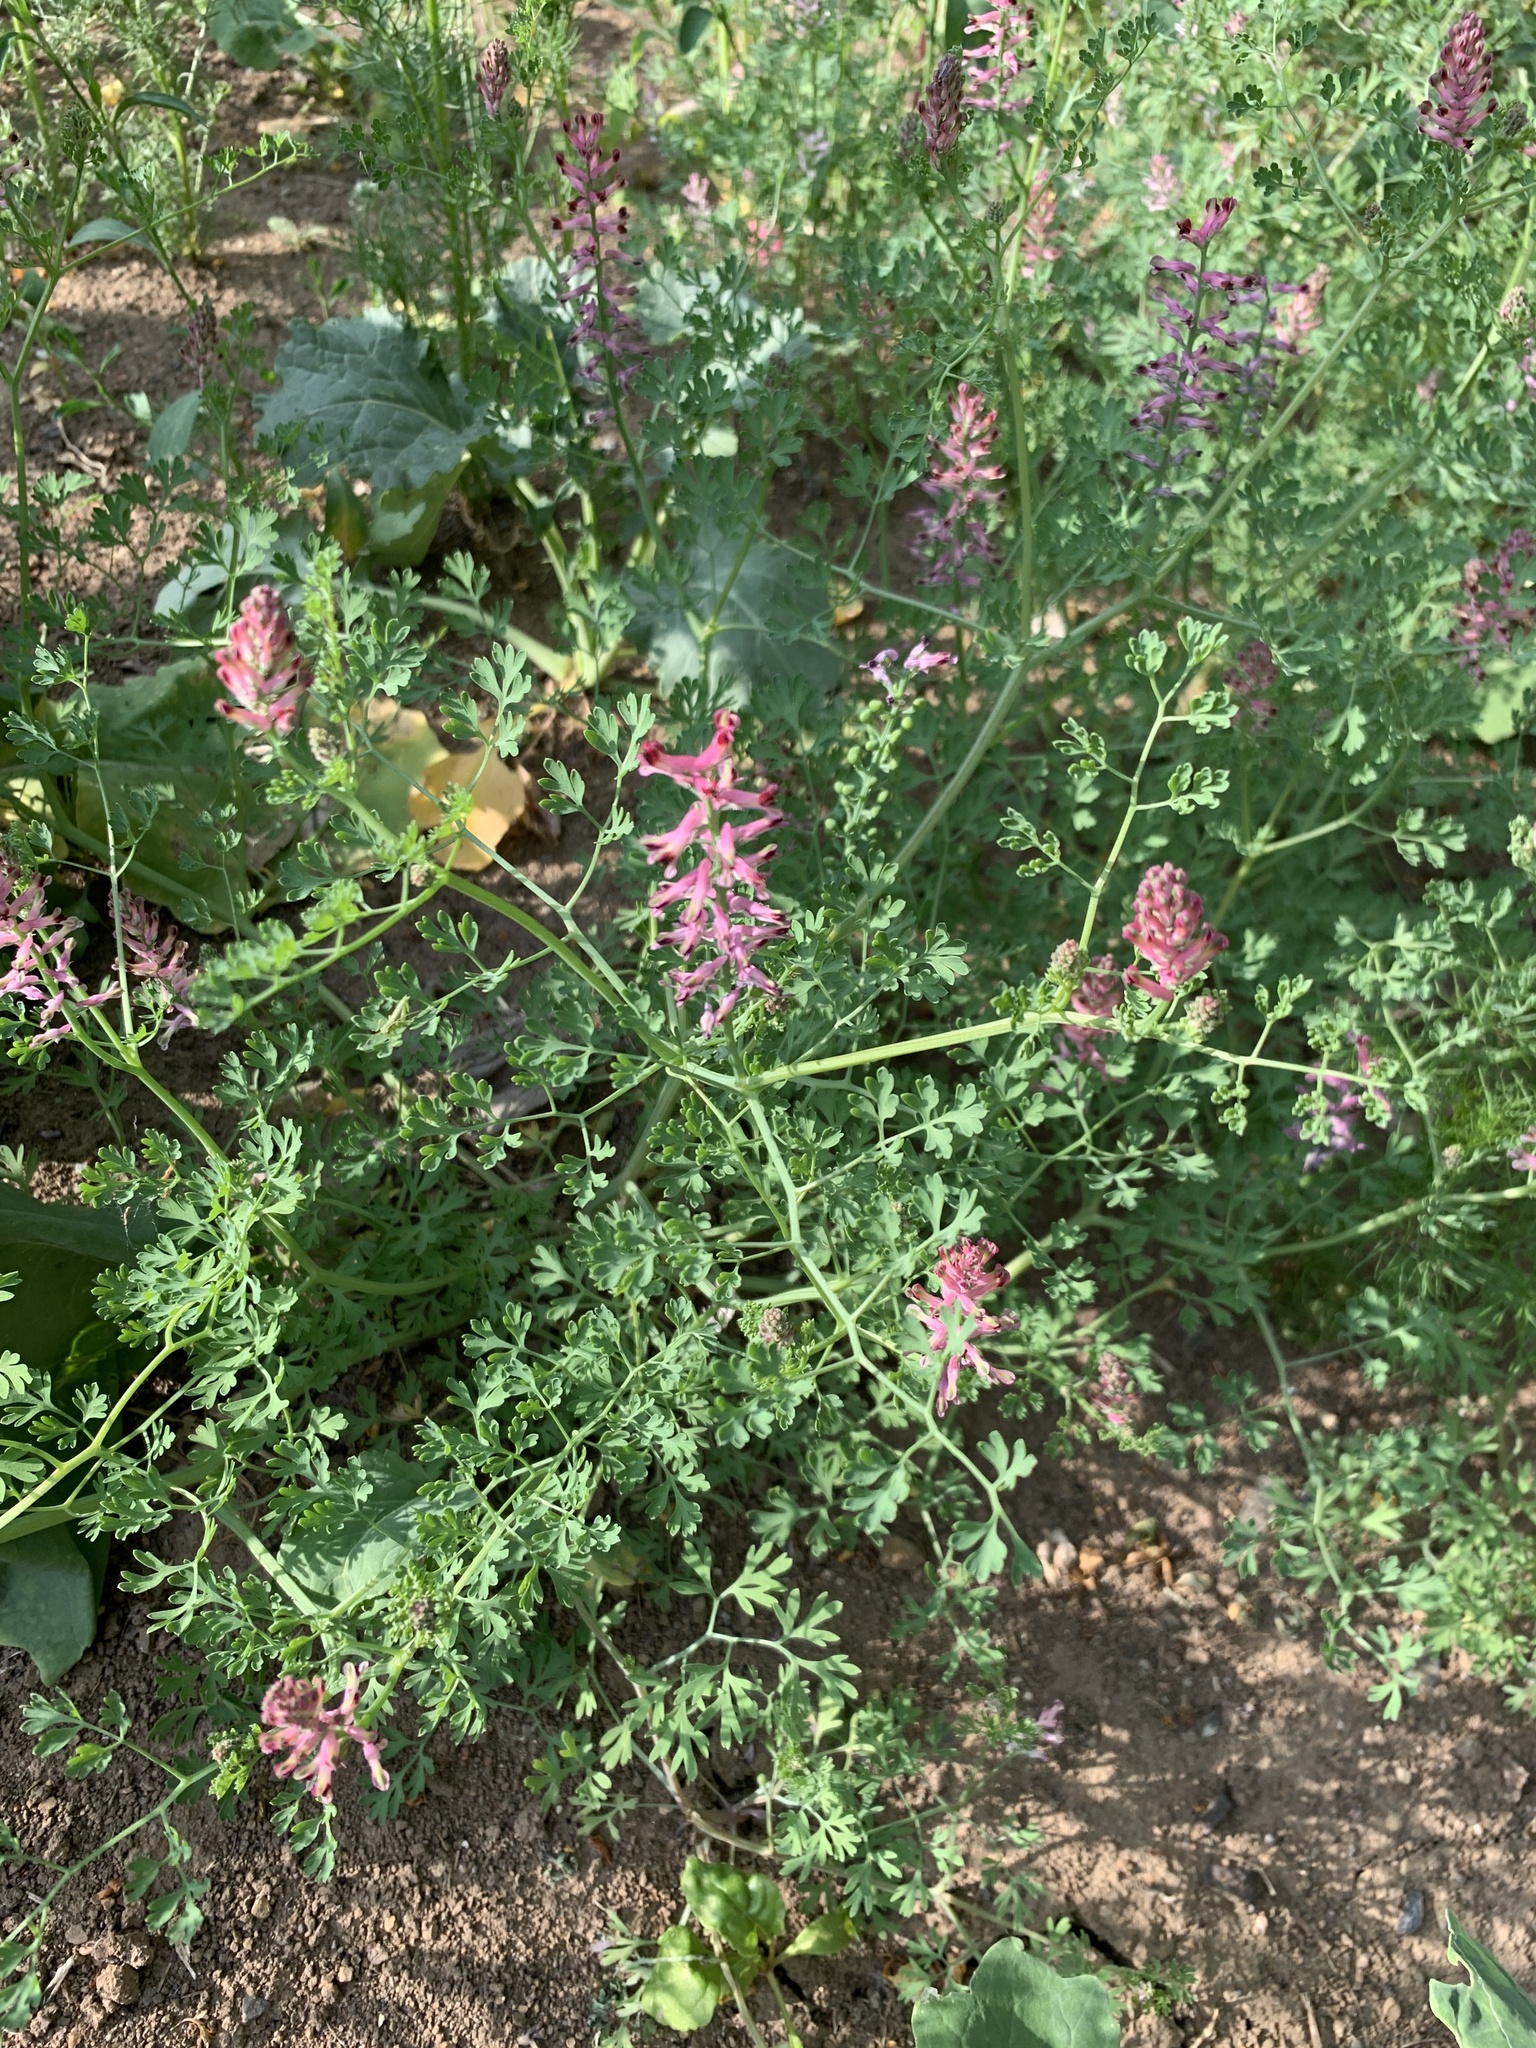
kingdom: Plantae
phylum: Tracheophyta
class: Magnoliopsida
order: Ranunculales
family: Papaveraceae
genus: Fumaria
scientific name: Fumaria officinalis
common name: Common fumitory
